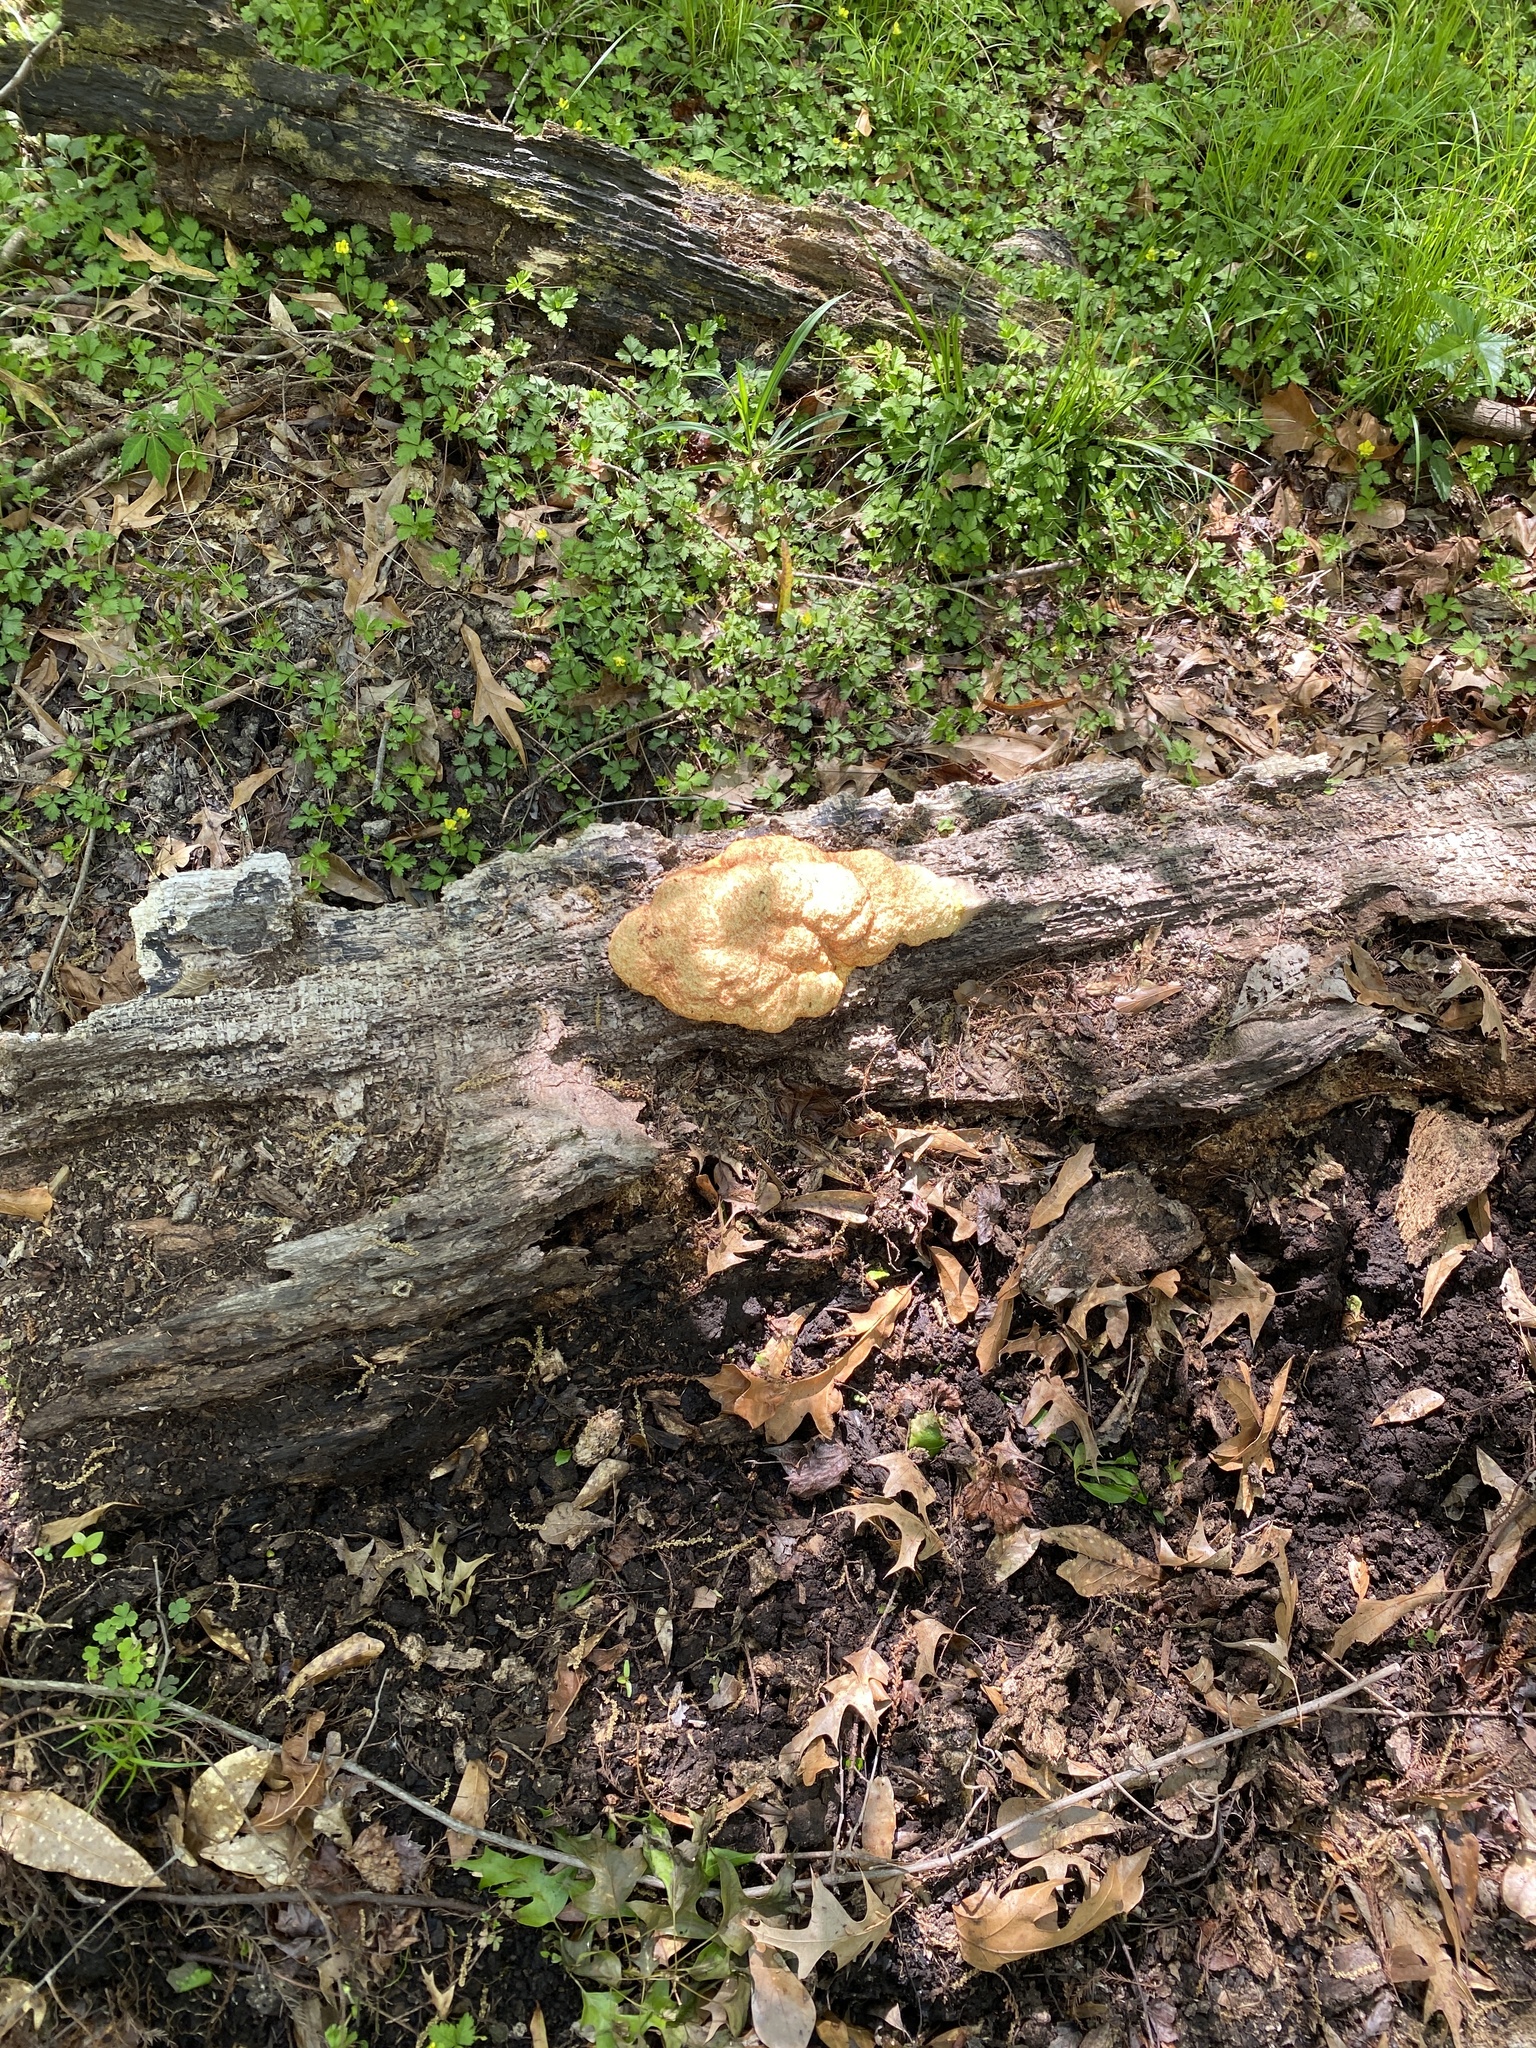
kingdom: Protozoa
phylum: Mycetozoa
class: Myxomycetes
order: Physarales
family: Physaraceae
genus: Fuligo
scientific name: Fuligo septica
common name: Dog vomit slime mold
